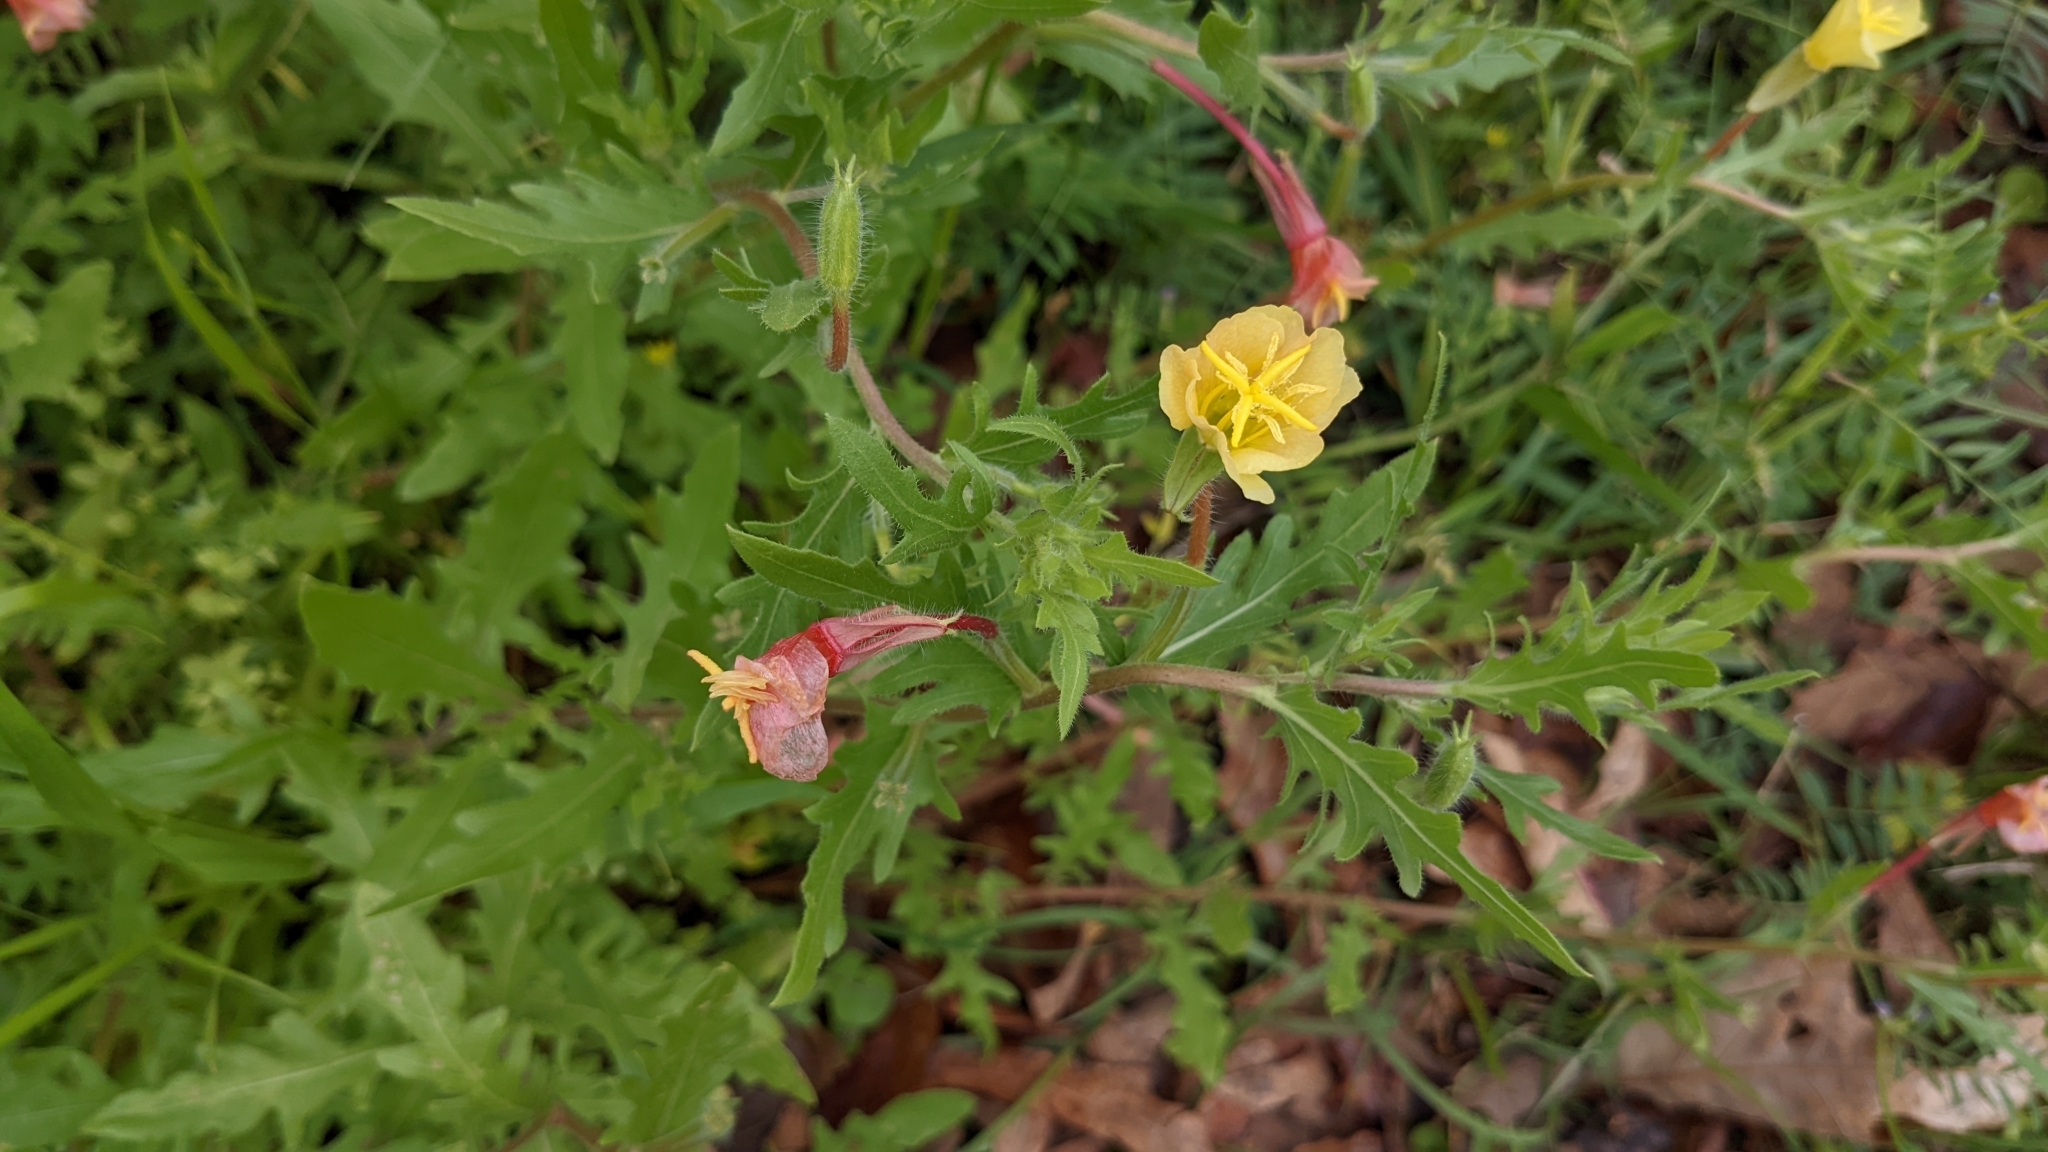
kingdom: Plantae
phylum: Tracheophyta
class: Magnoliopsida
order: Myrtales
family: Onagraceae
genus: Oenothera
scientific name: Oenothera laciniata
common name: Cut-leaved evening-primrose
